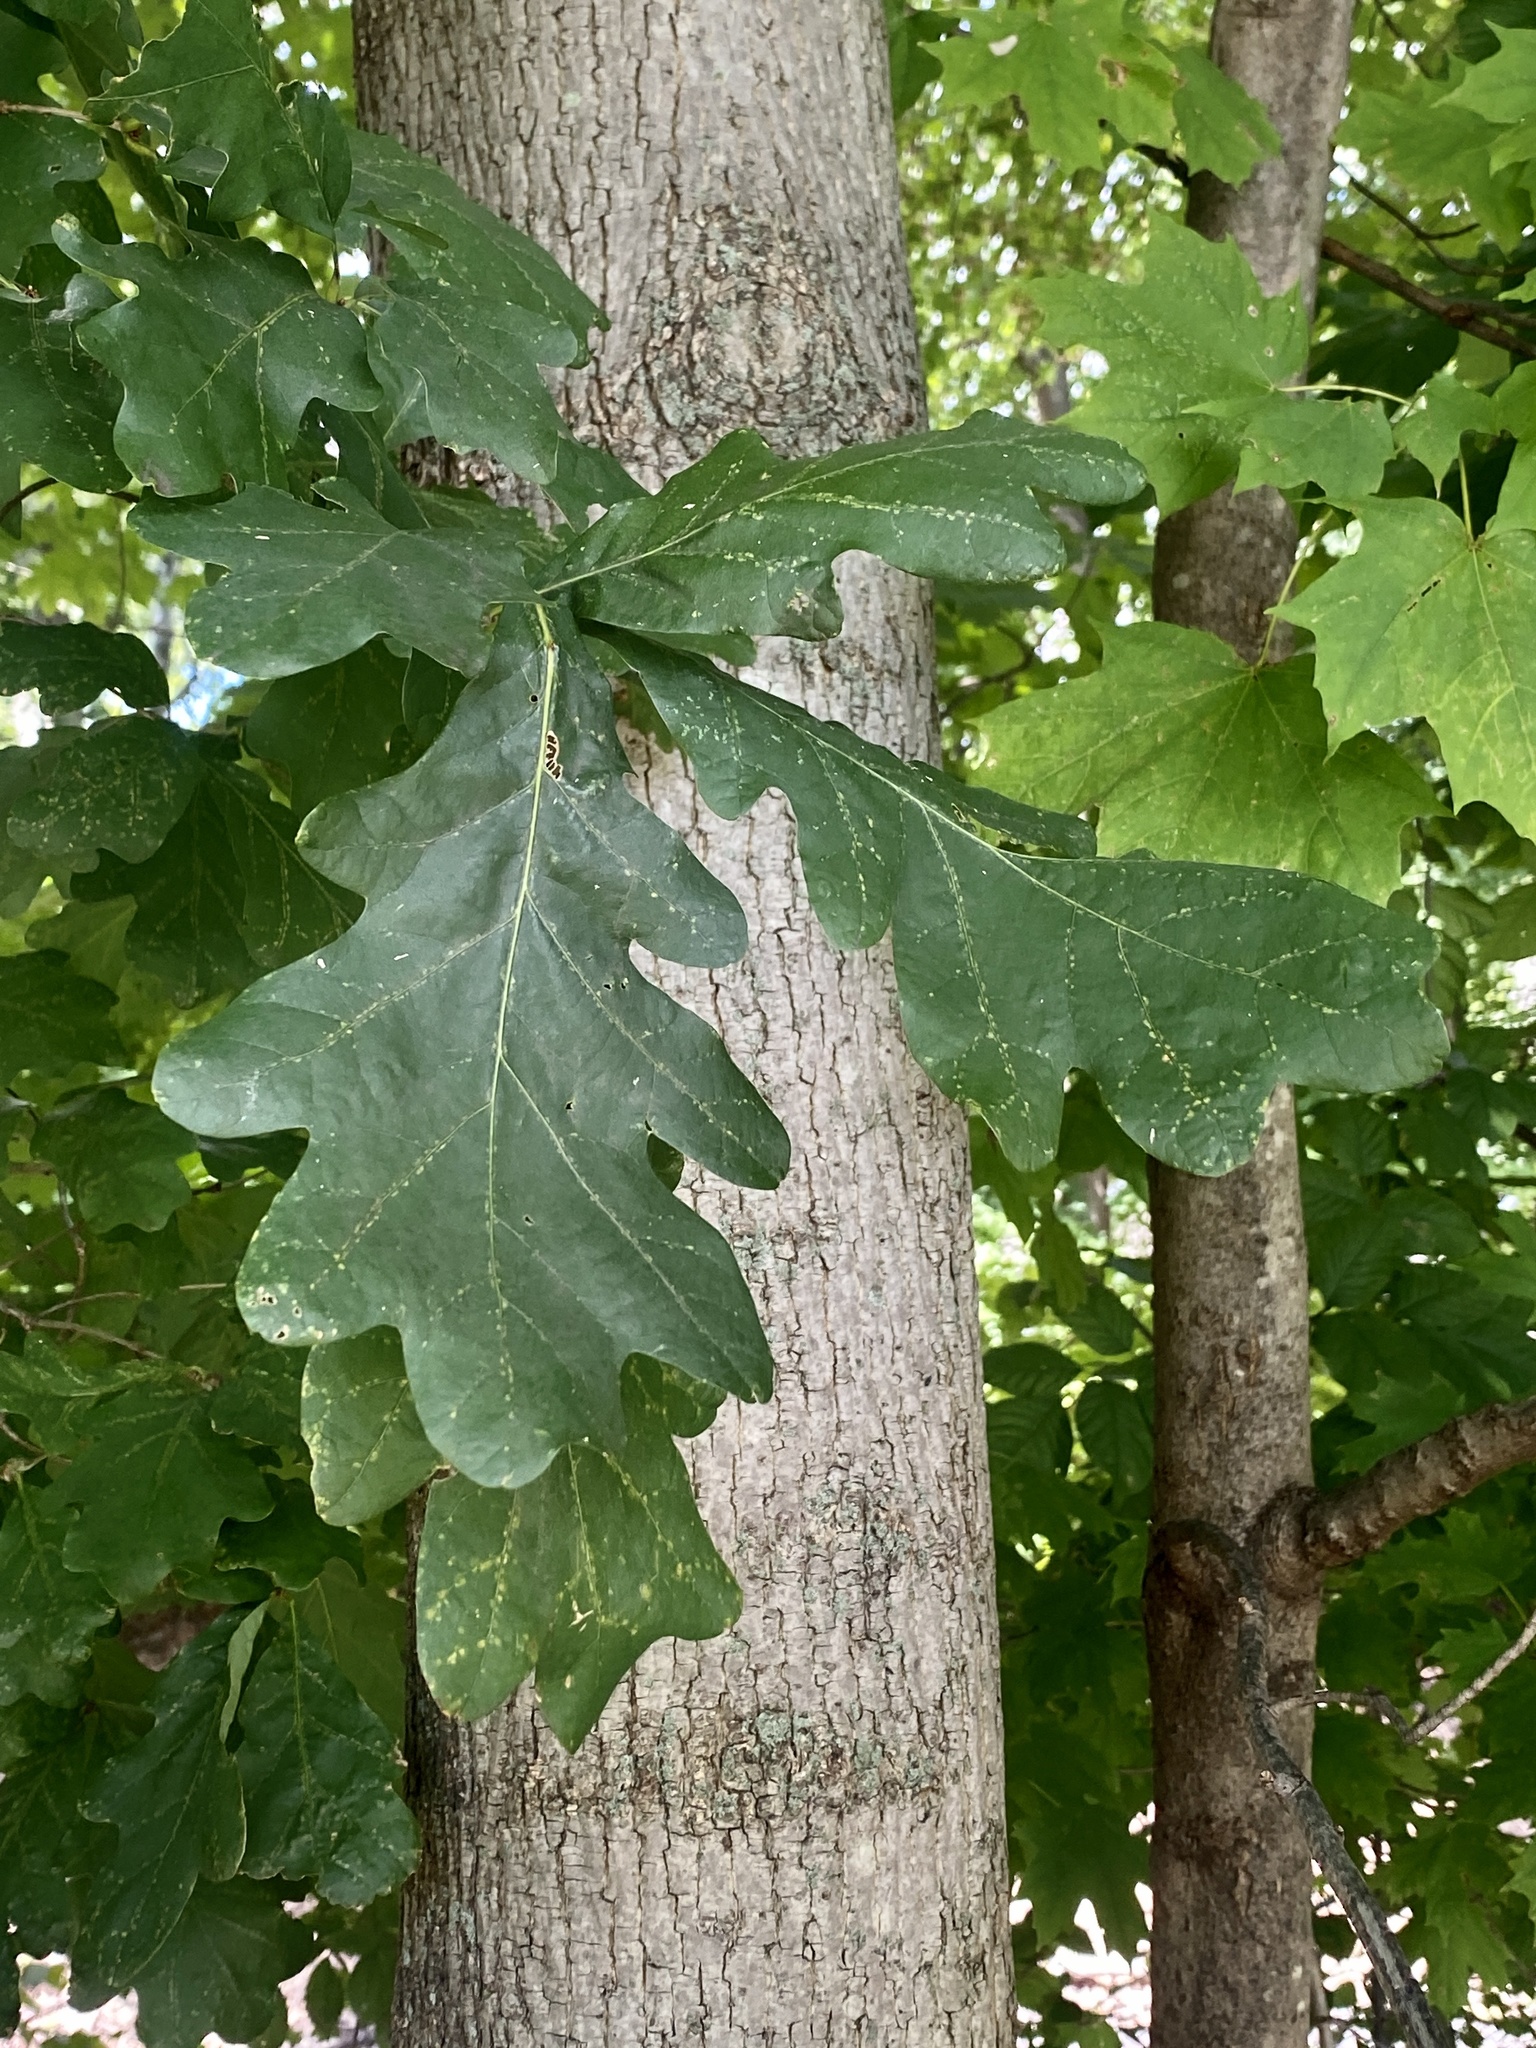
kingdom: Plantae
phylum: Tracheophyta
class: Magnoliopsida
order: Fagales
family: Fagaceae
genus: Quercus
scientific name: Quercus alba
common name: White oak
